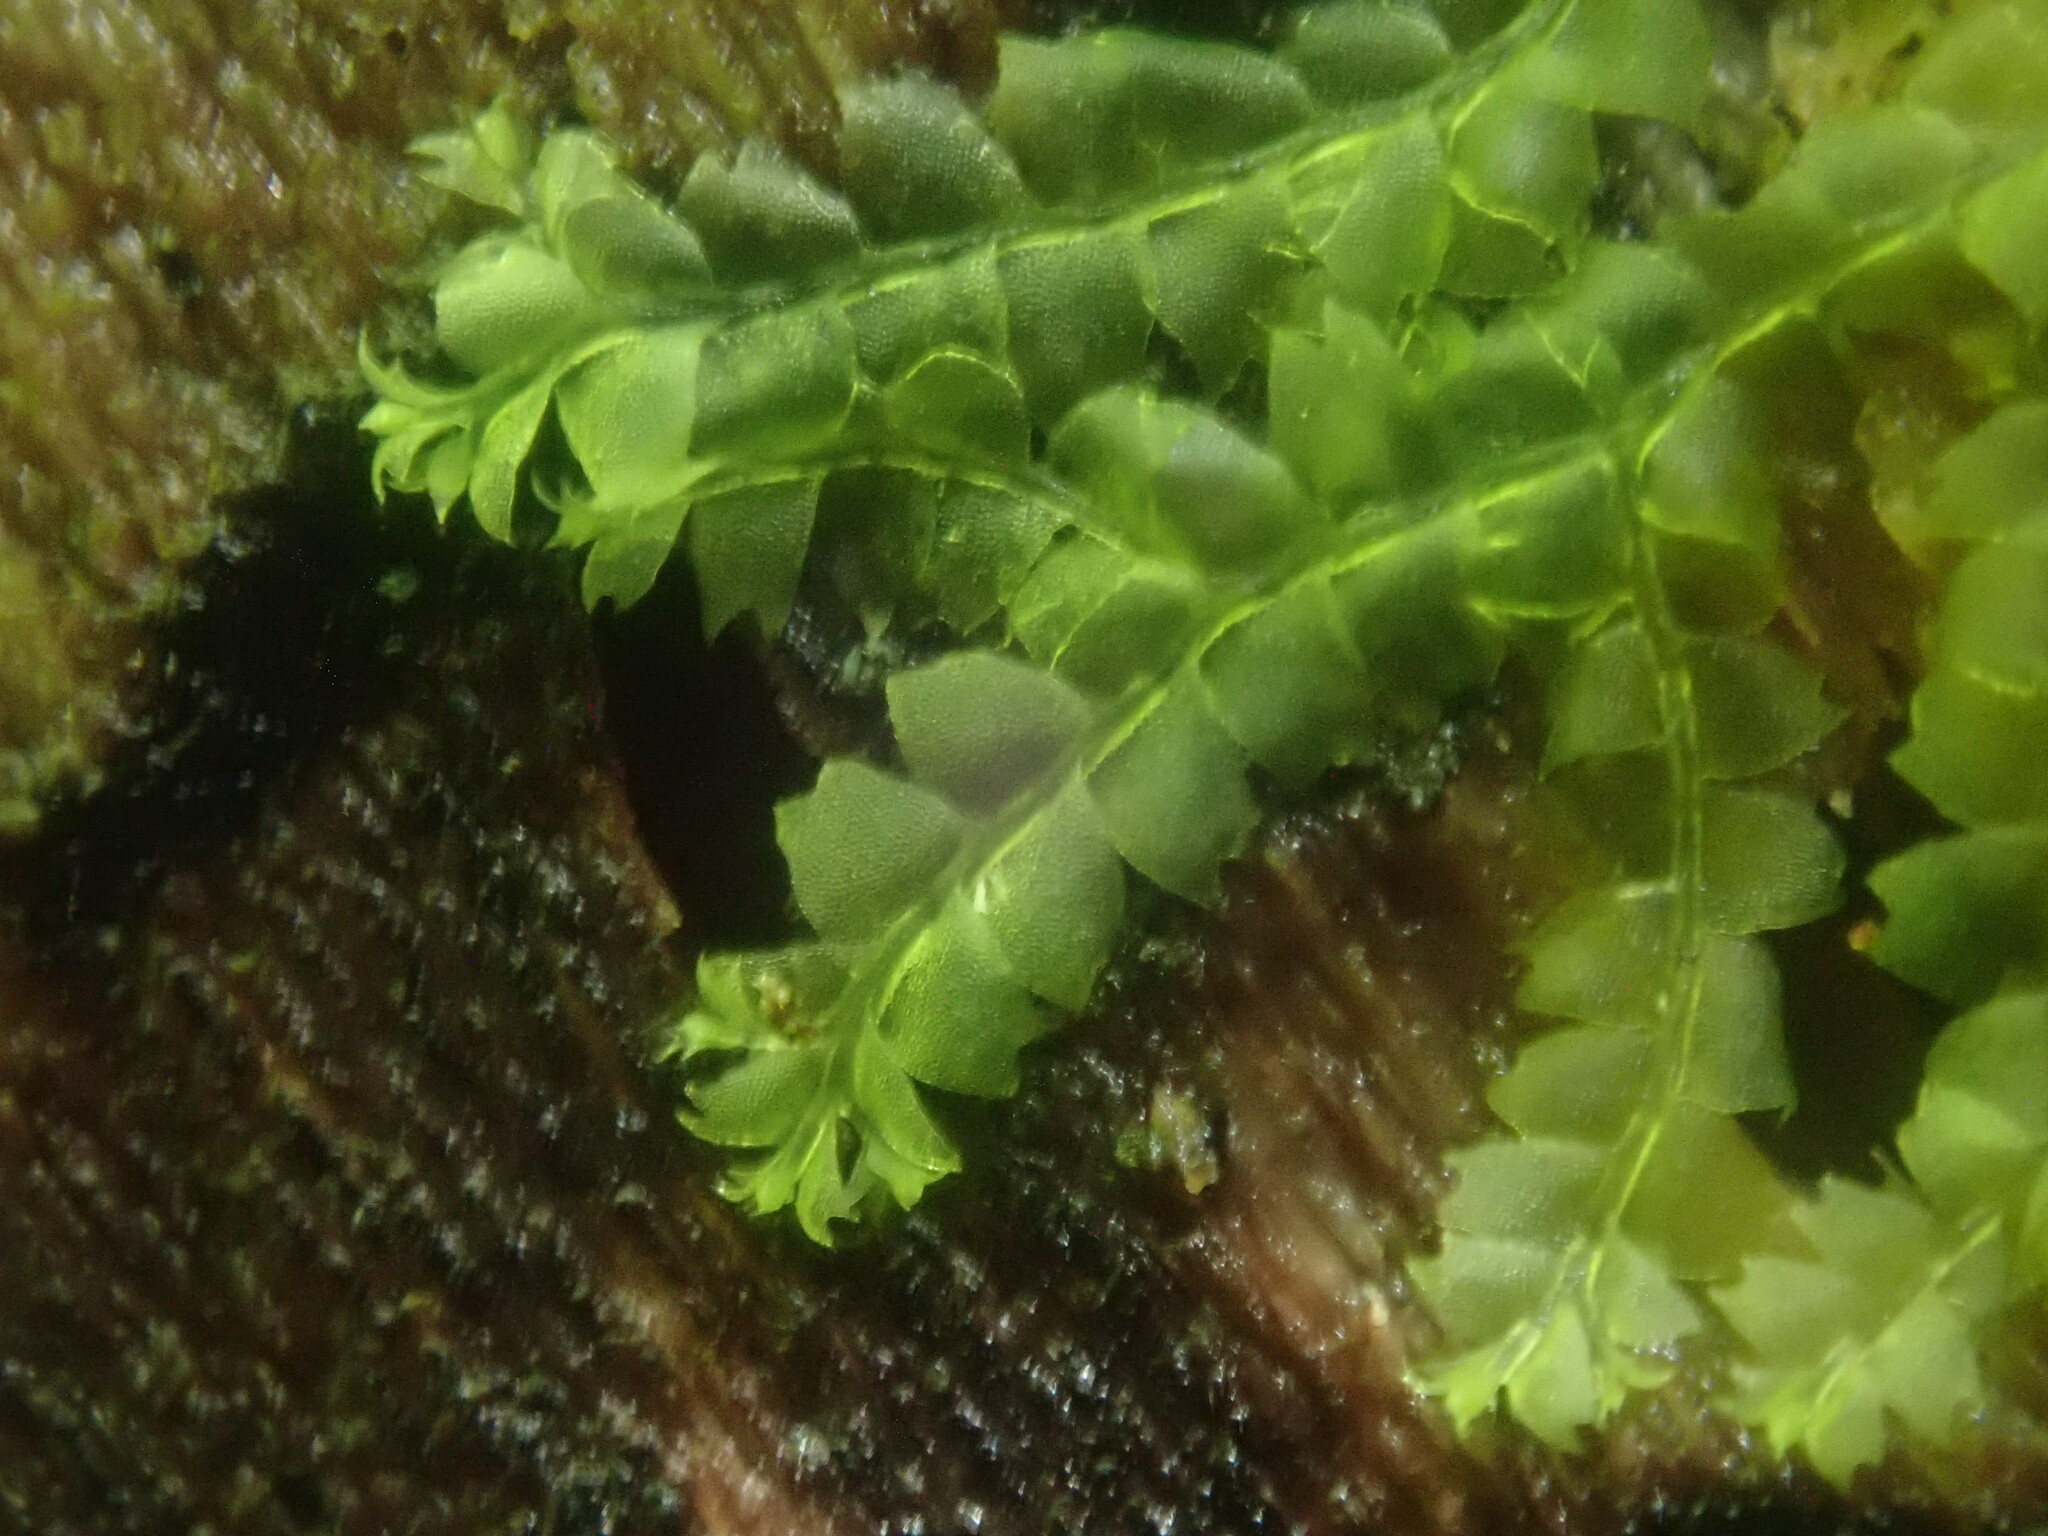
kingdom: Plantae
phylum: Marchantiophyta
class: Jungermanniopsida
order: Jungermanniales
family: Lophocoleaceae
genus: Lophocolea
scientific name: Lophocolea heterophylla
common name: Variable-leaved crestwort
